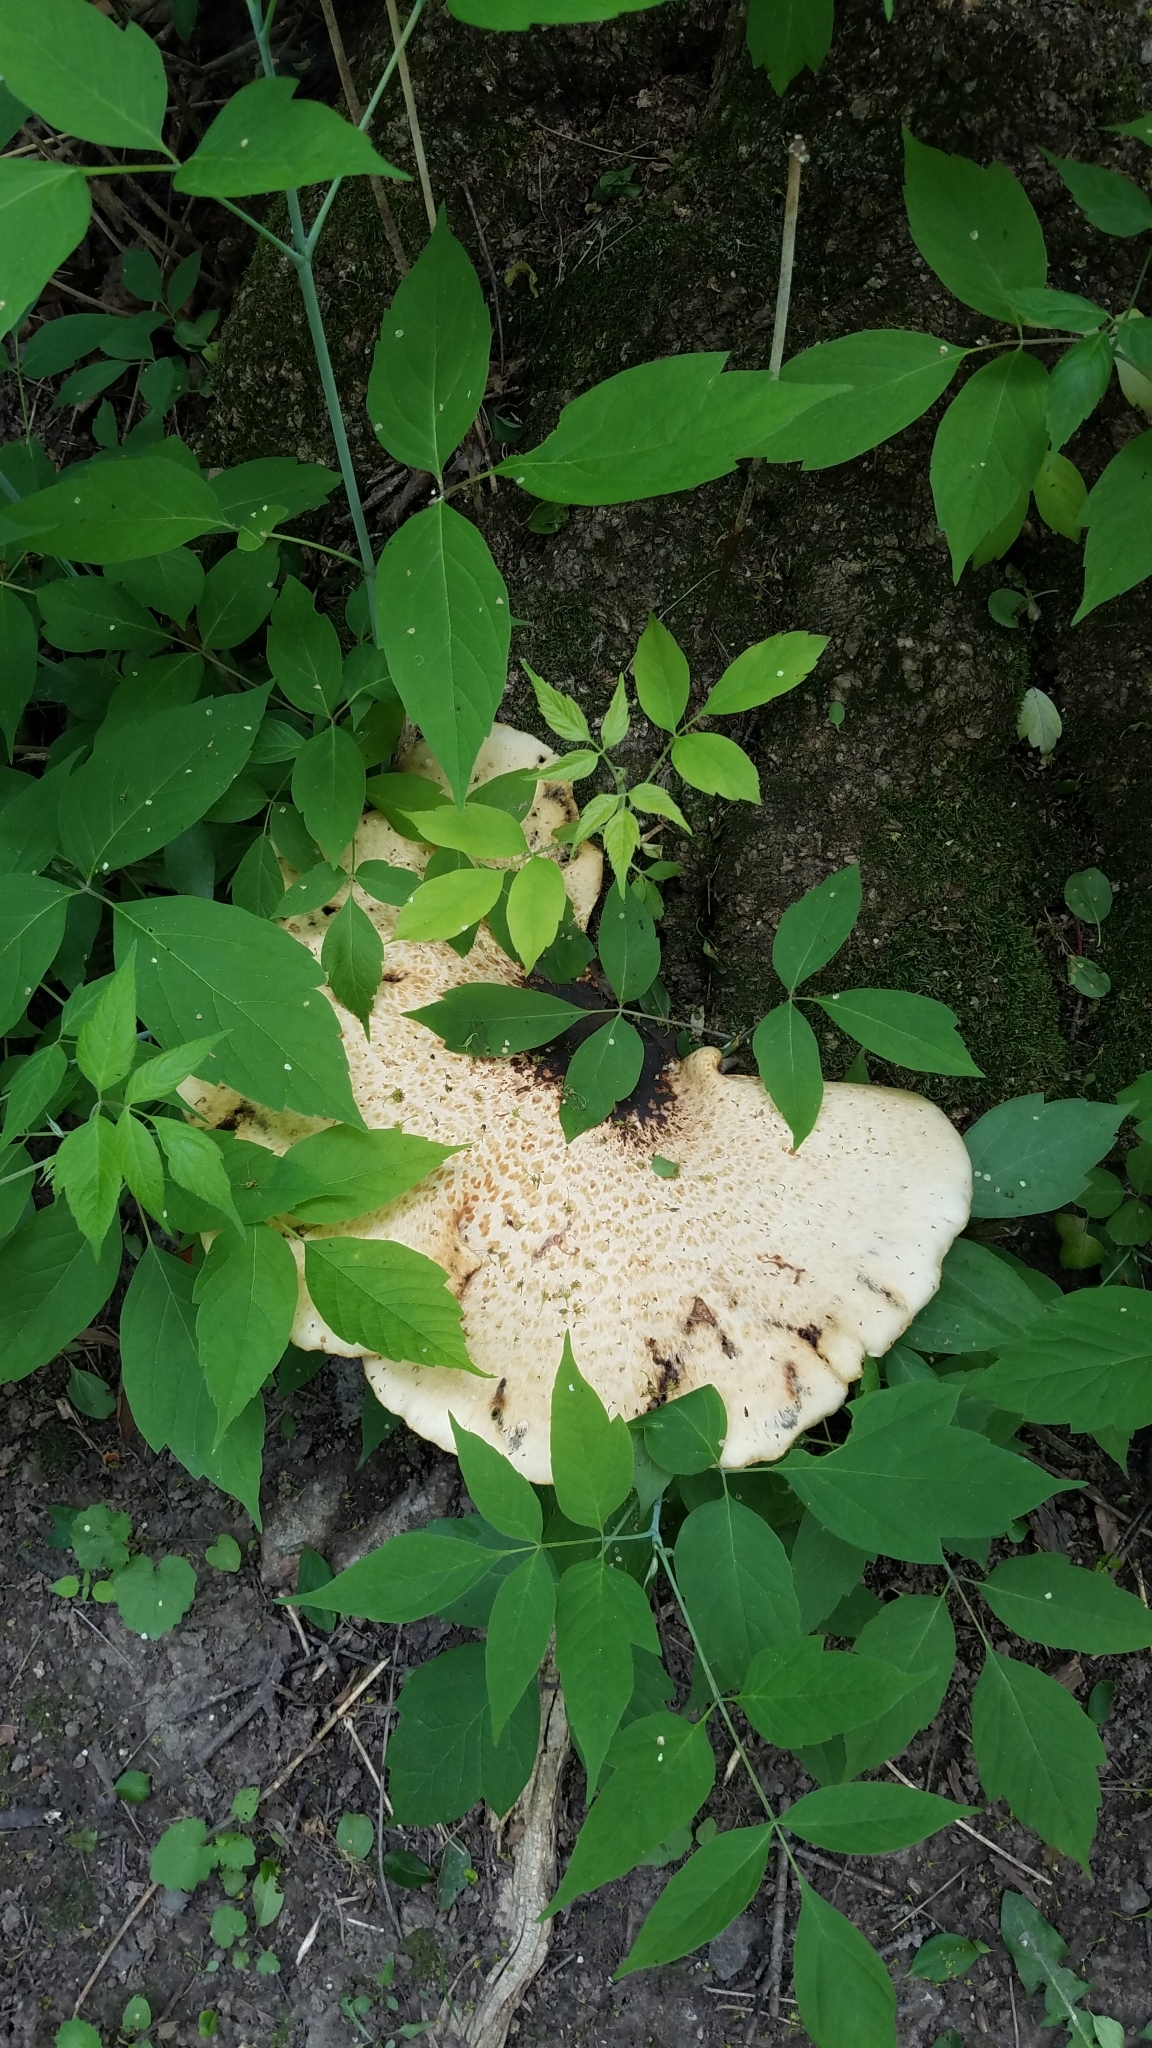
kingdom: Fungi
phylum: Basidiomycota
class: Agaricomycetes
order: Polyporales
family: Polyporaceae
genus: Cerioporus
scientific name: Cerioporus squamosus
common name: Dryad's saddle
